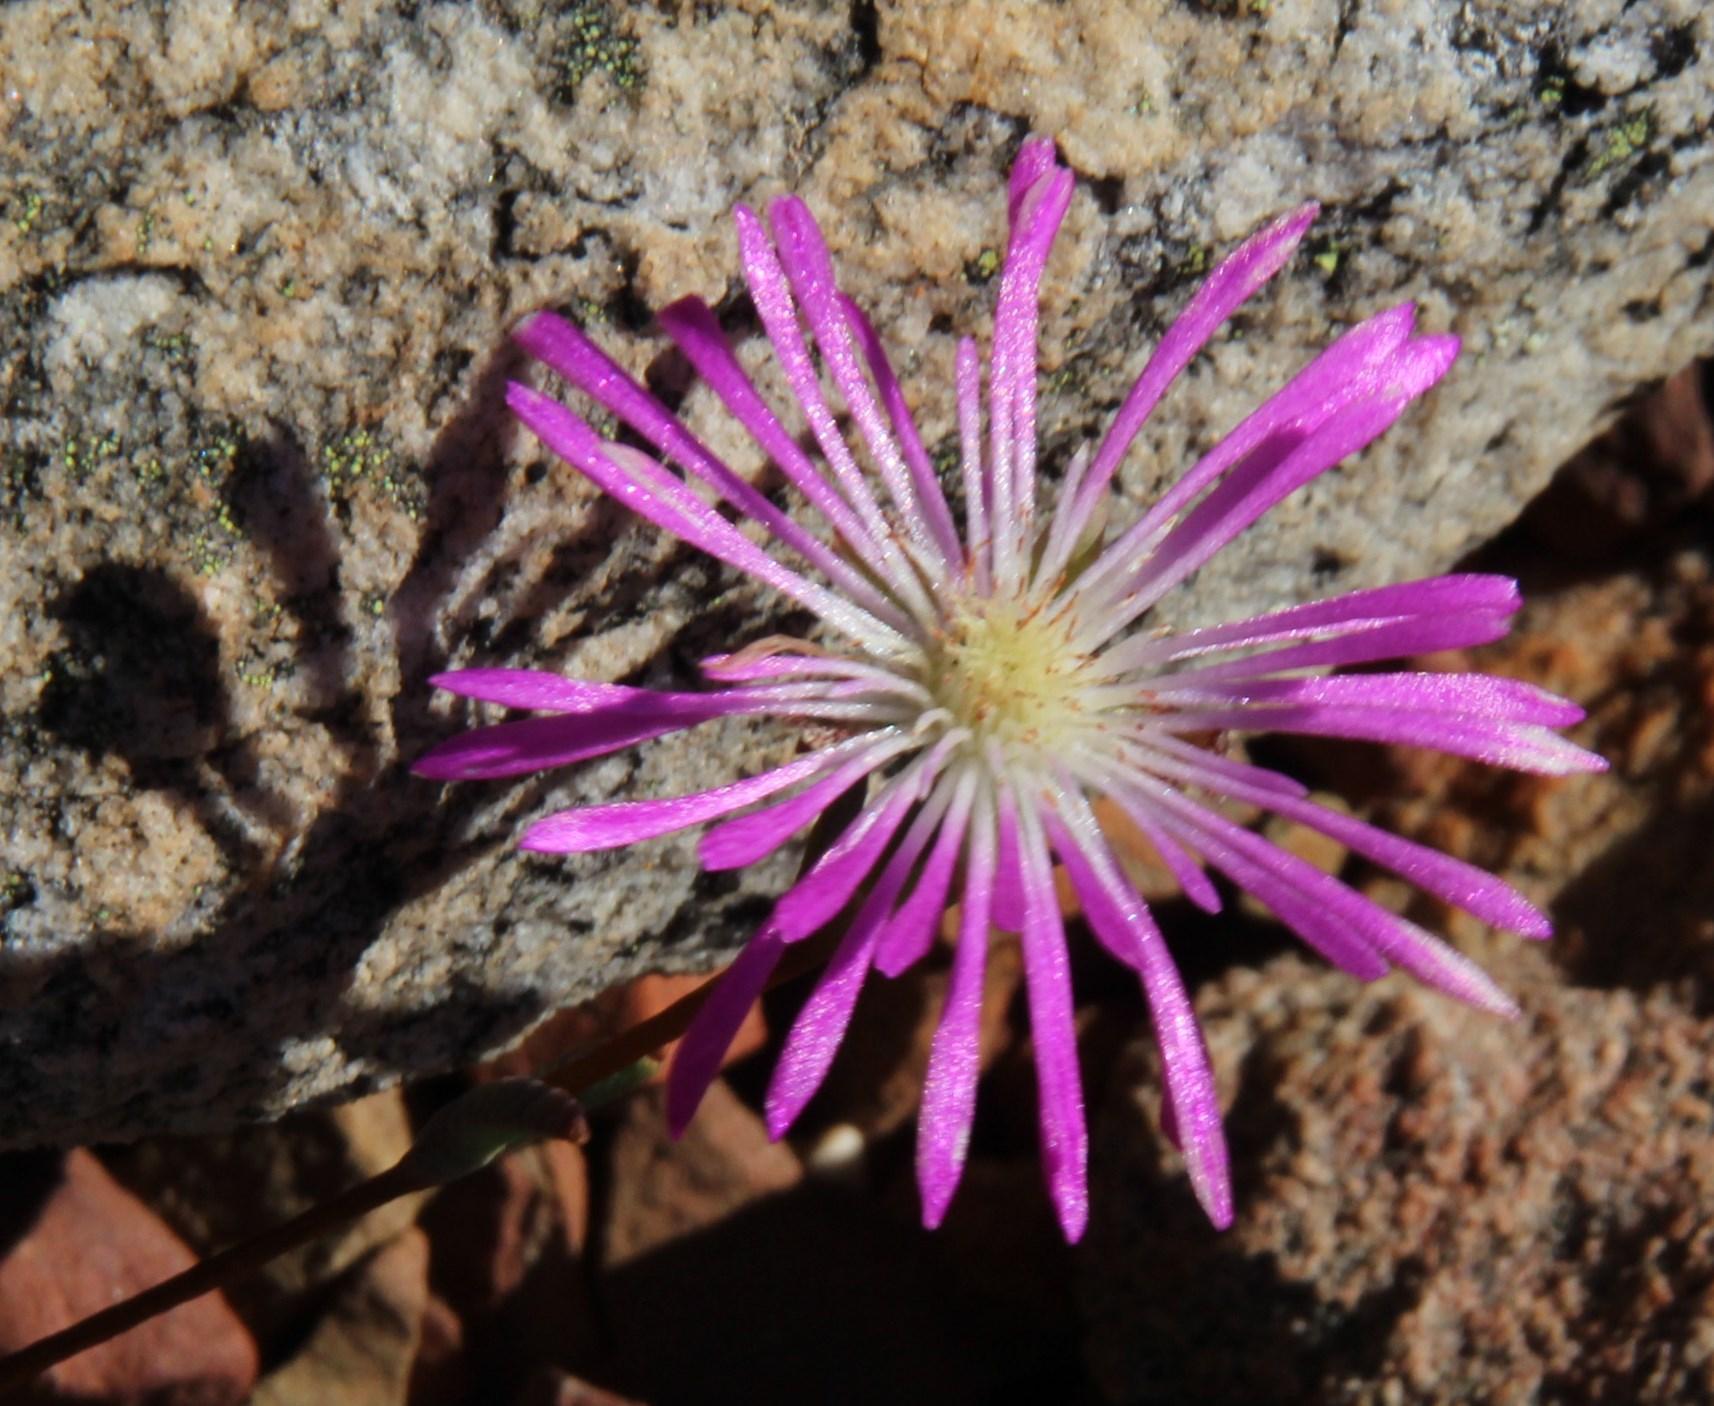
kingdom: Plantae
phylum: Tracheophyta
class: Magnoliopsida
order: Caryophyllales
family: Aizoaceae
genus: Erepsia
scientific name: Erepsia esterhuyseniae
